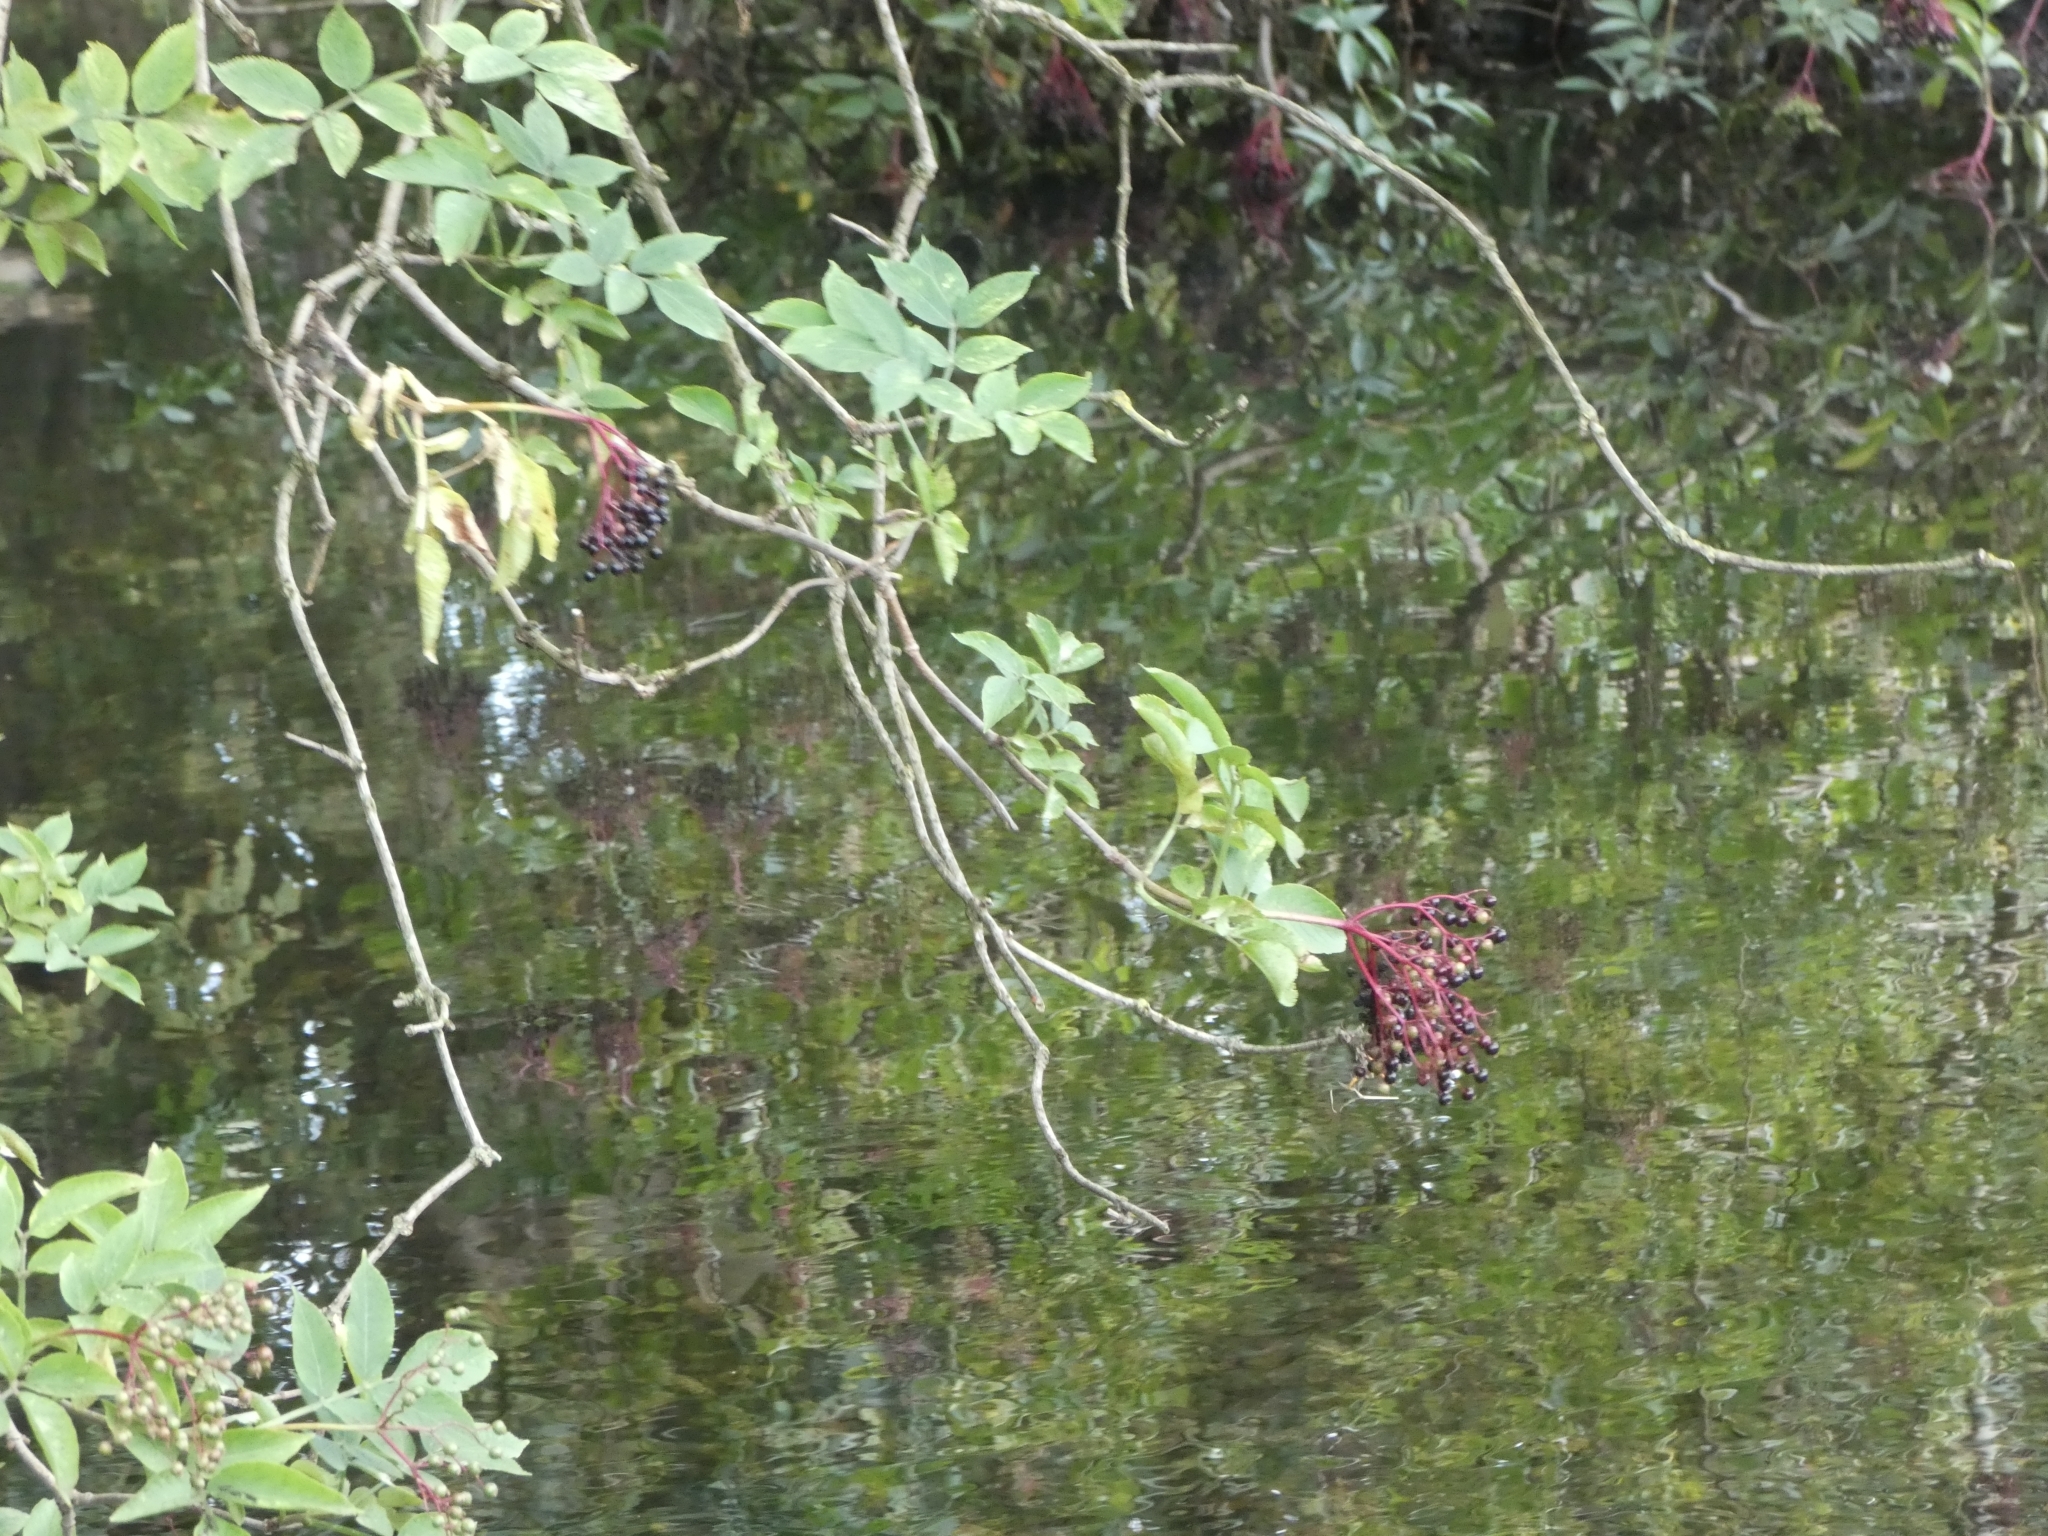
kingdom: Plantae
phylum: Tracheophyta
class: Magnoliopsida
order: Dipsacales
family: Viburnaceae
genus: Sambucus
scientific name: Sambucus nigra
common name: Elder
